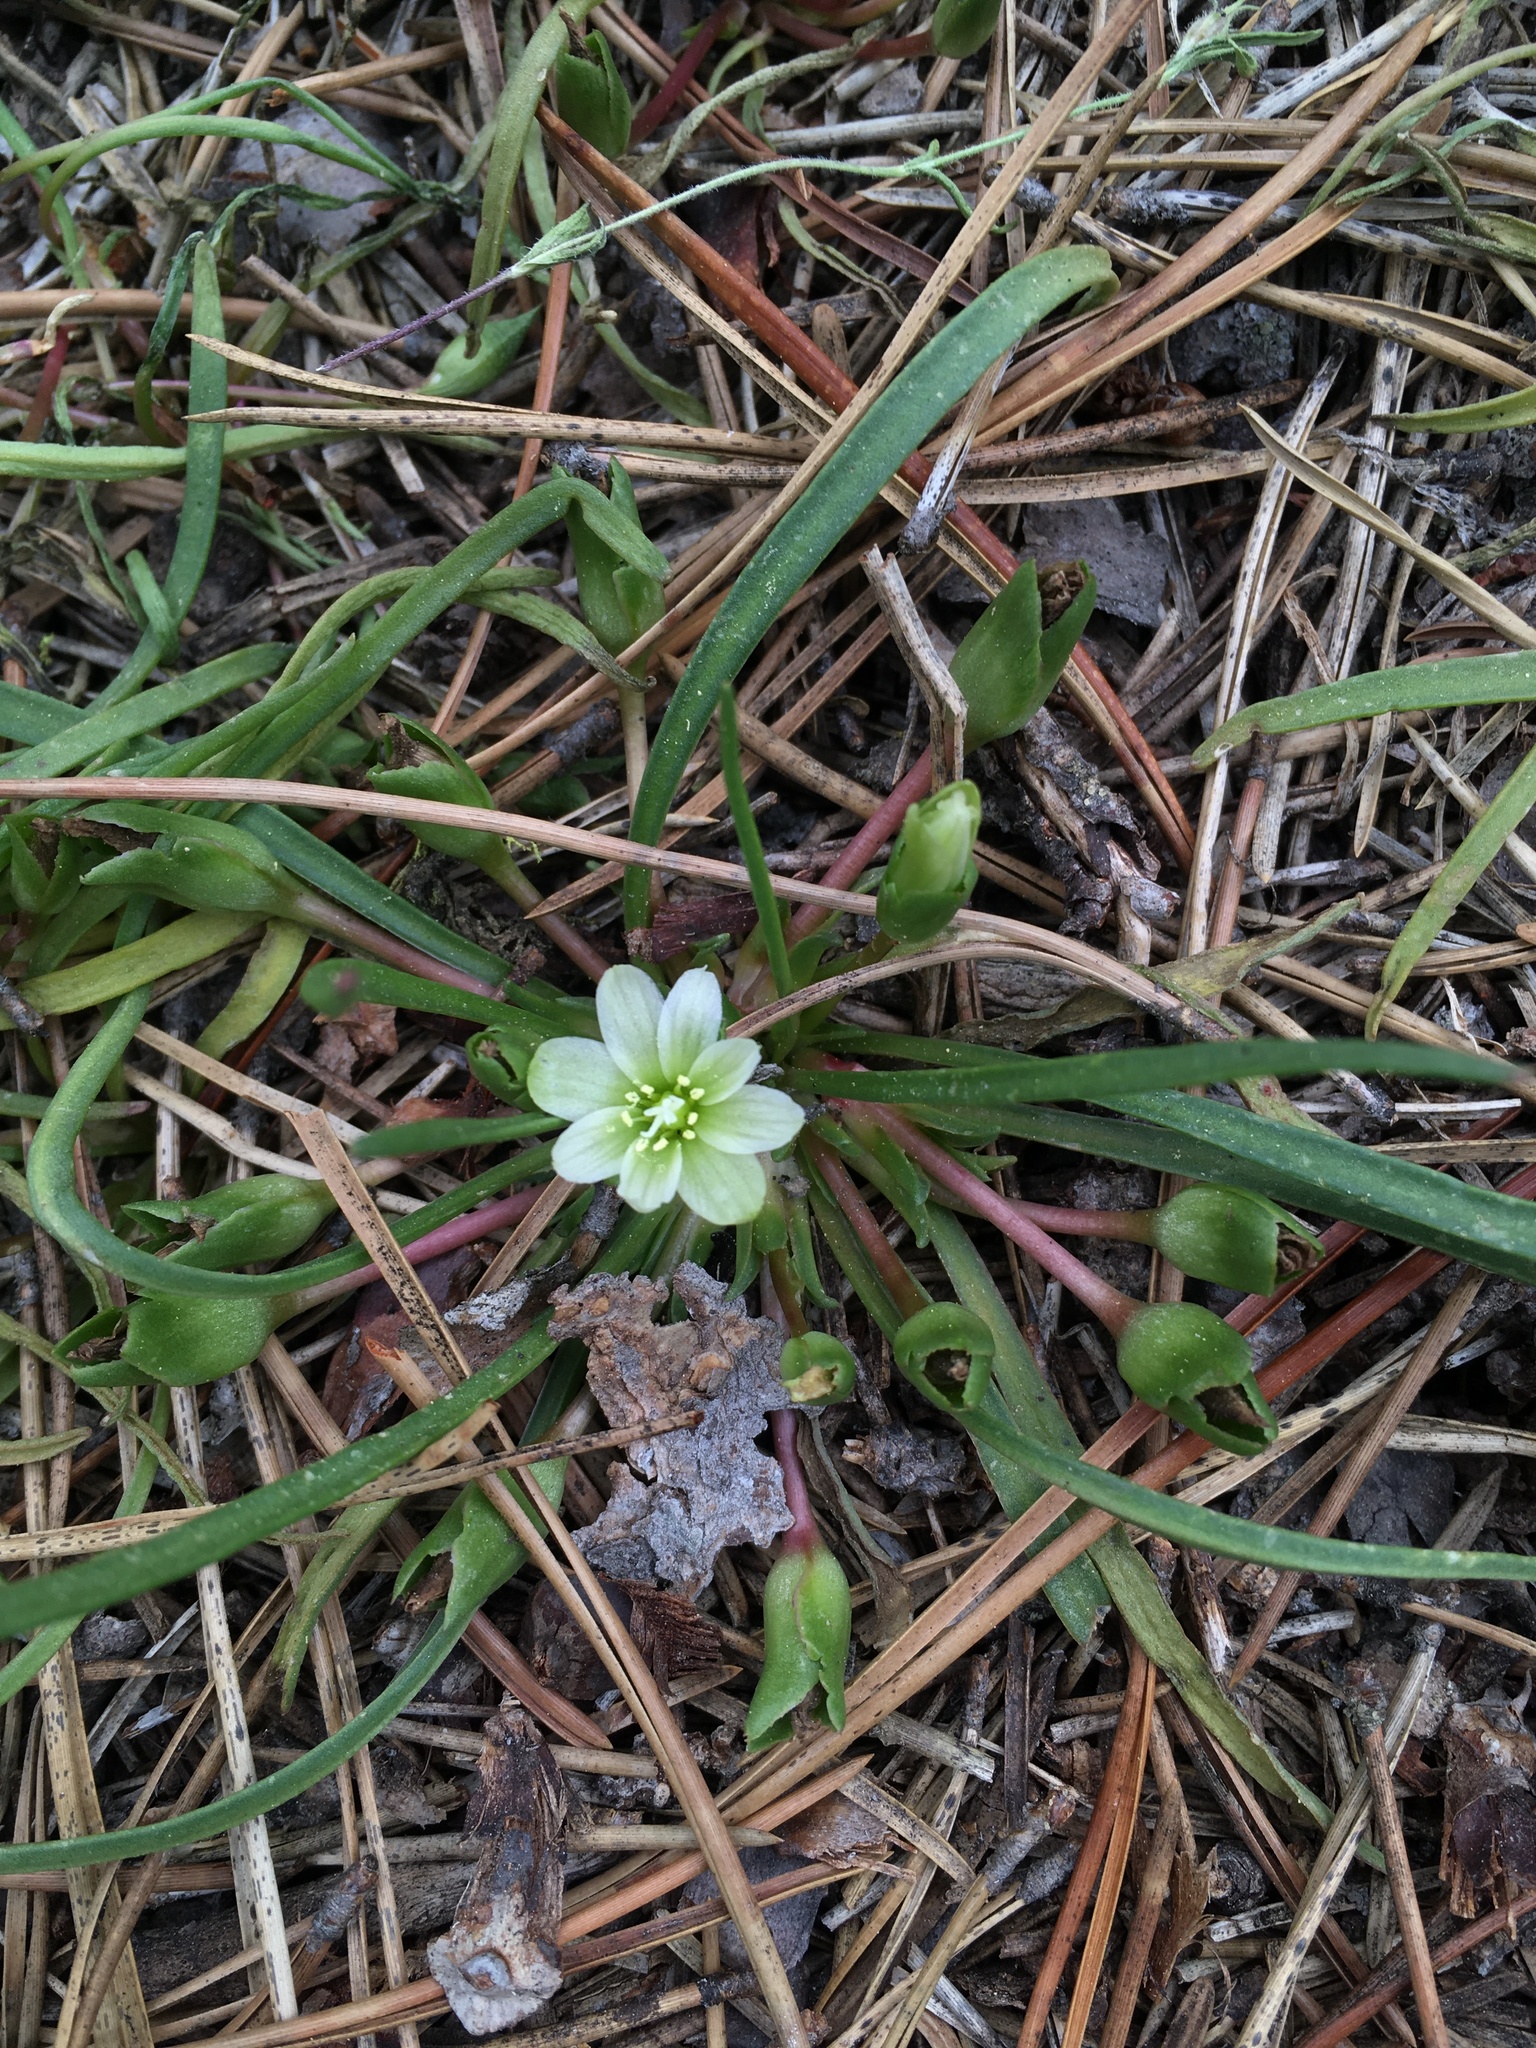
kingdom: Plantae
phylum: Tracheophyta
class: Magnoliopsida
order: Caryophyllales
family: Montiaceae
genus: Lewisia
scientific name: Lewisia nevadensis
